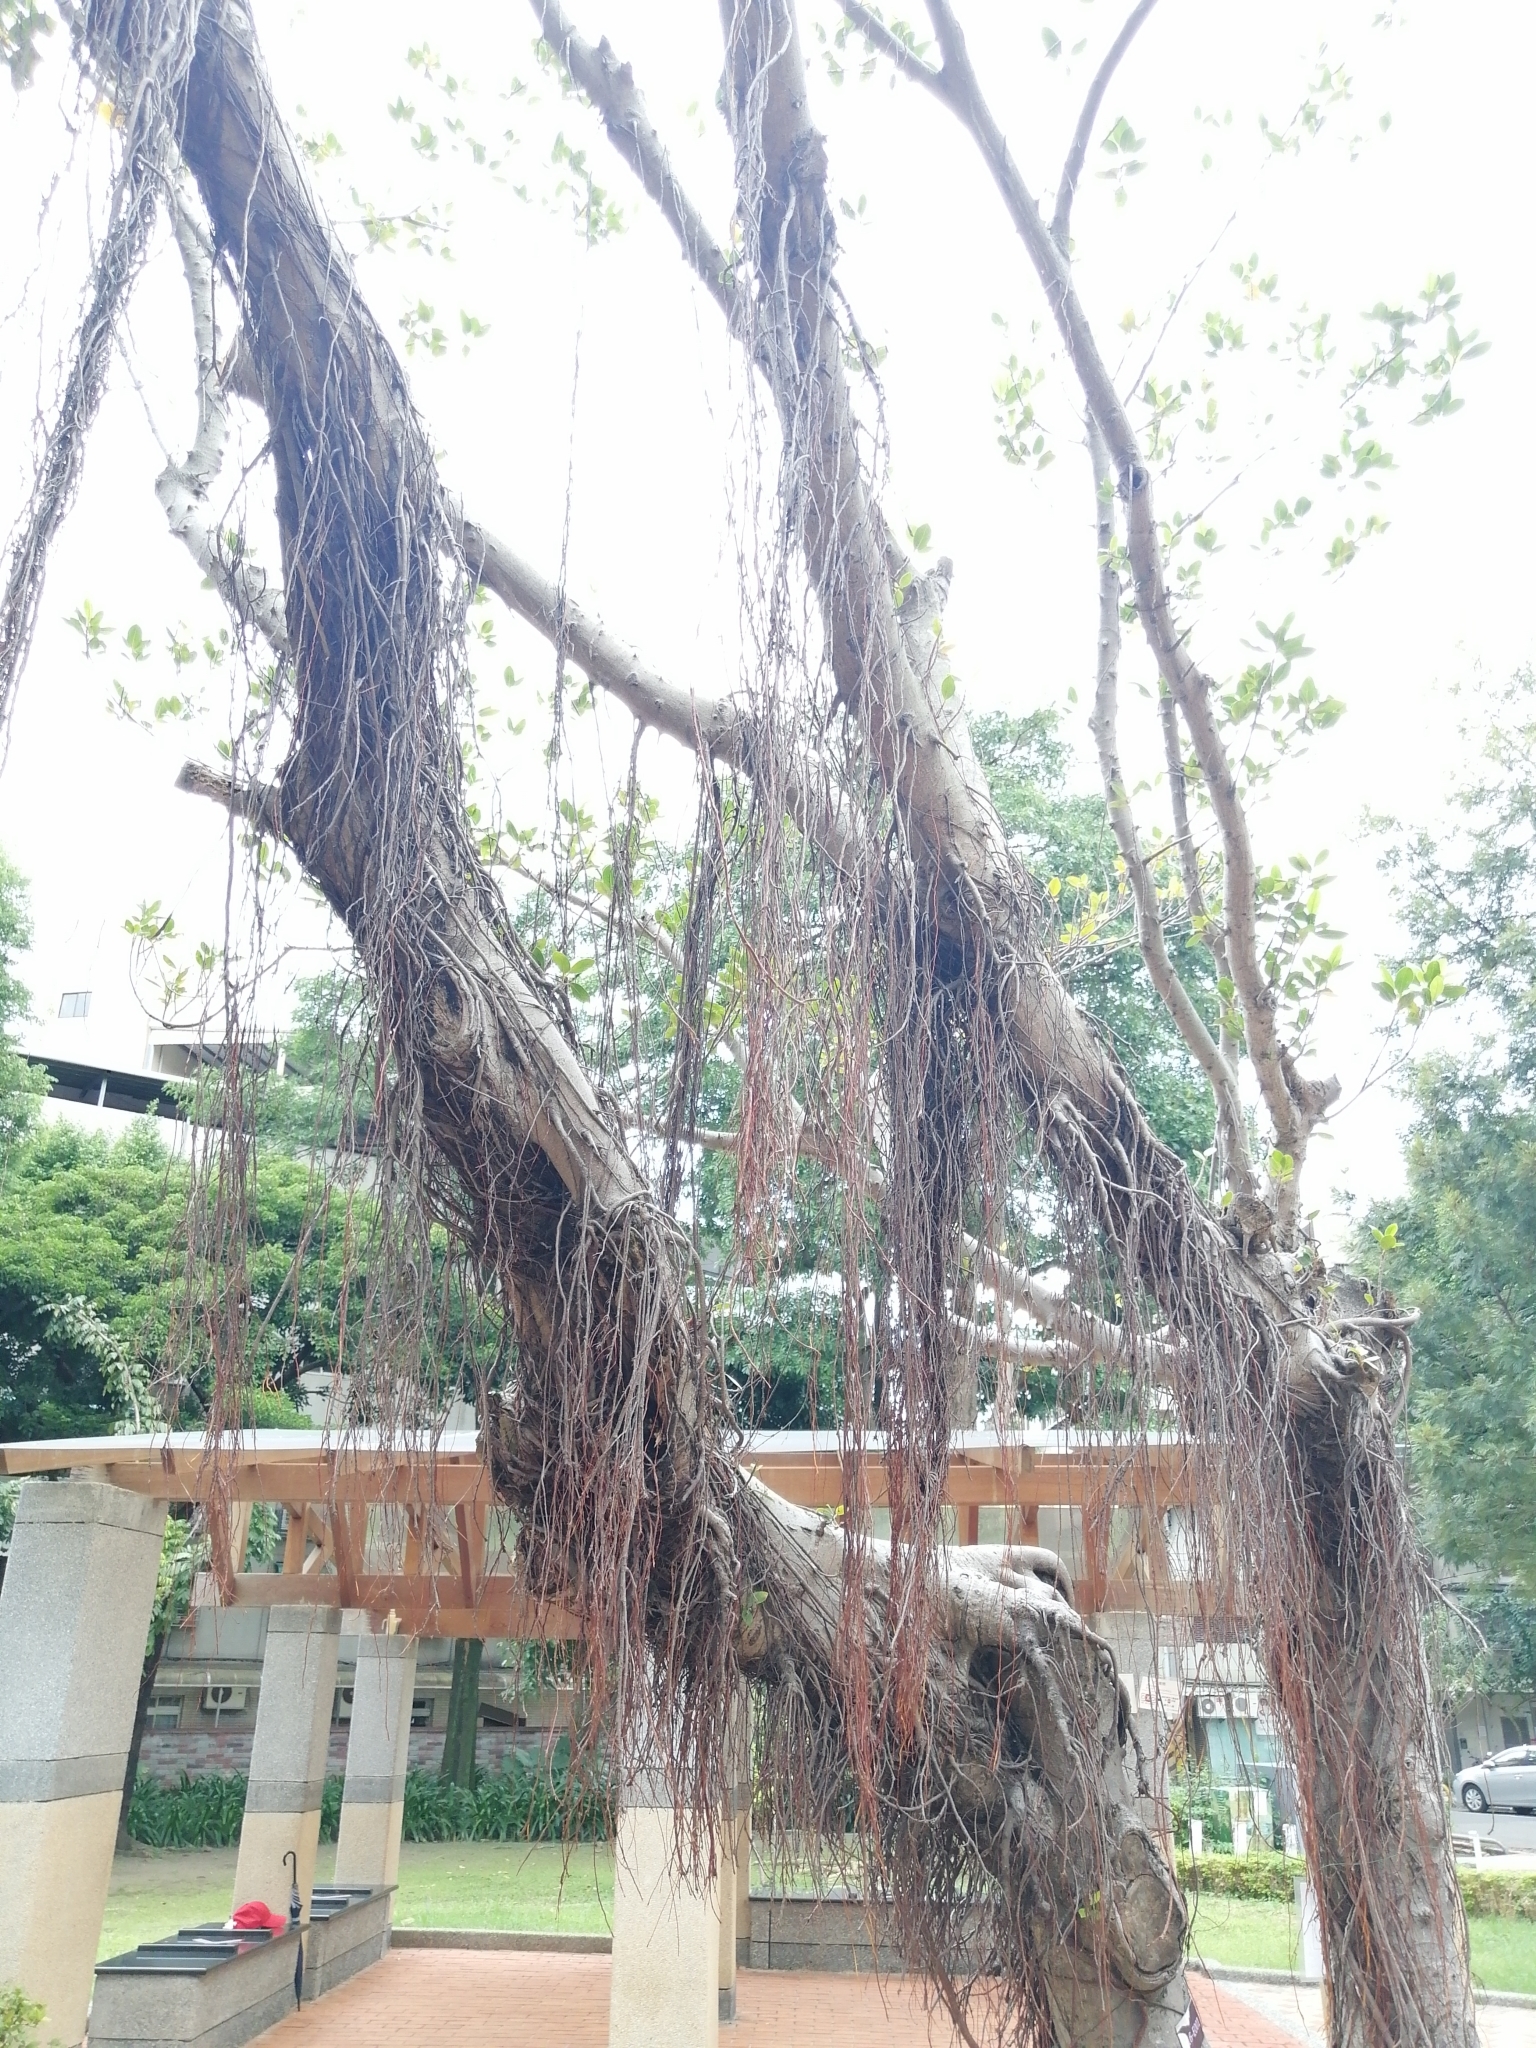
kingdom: Plantae
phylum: Tracheophyta
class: Magnoliopsida
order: Rosales
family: Moraceae
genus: Ficus
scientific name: Ficus microcarpa
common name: Chinese banyan
